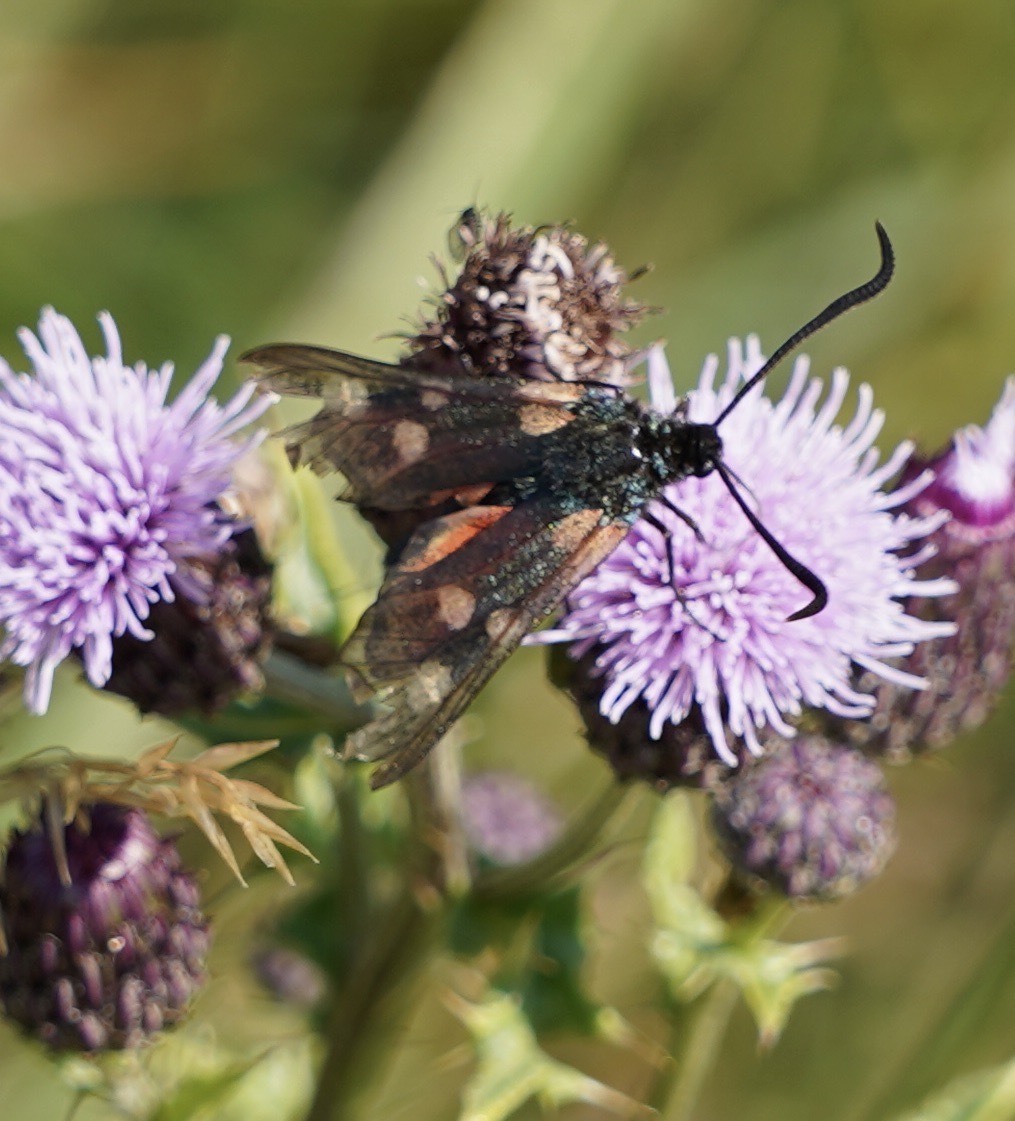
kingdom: Animalia
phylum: Arthropoda
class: Insecta
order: Lepidoptera
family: Zygaenidae
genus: Zygaena
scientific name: Zygaena
